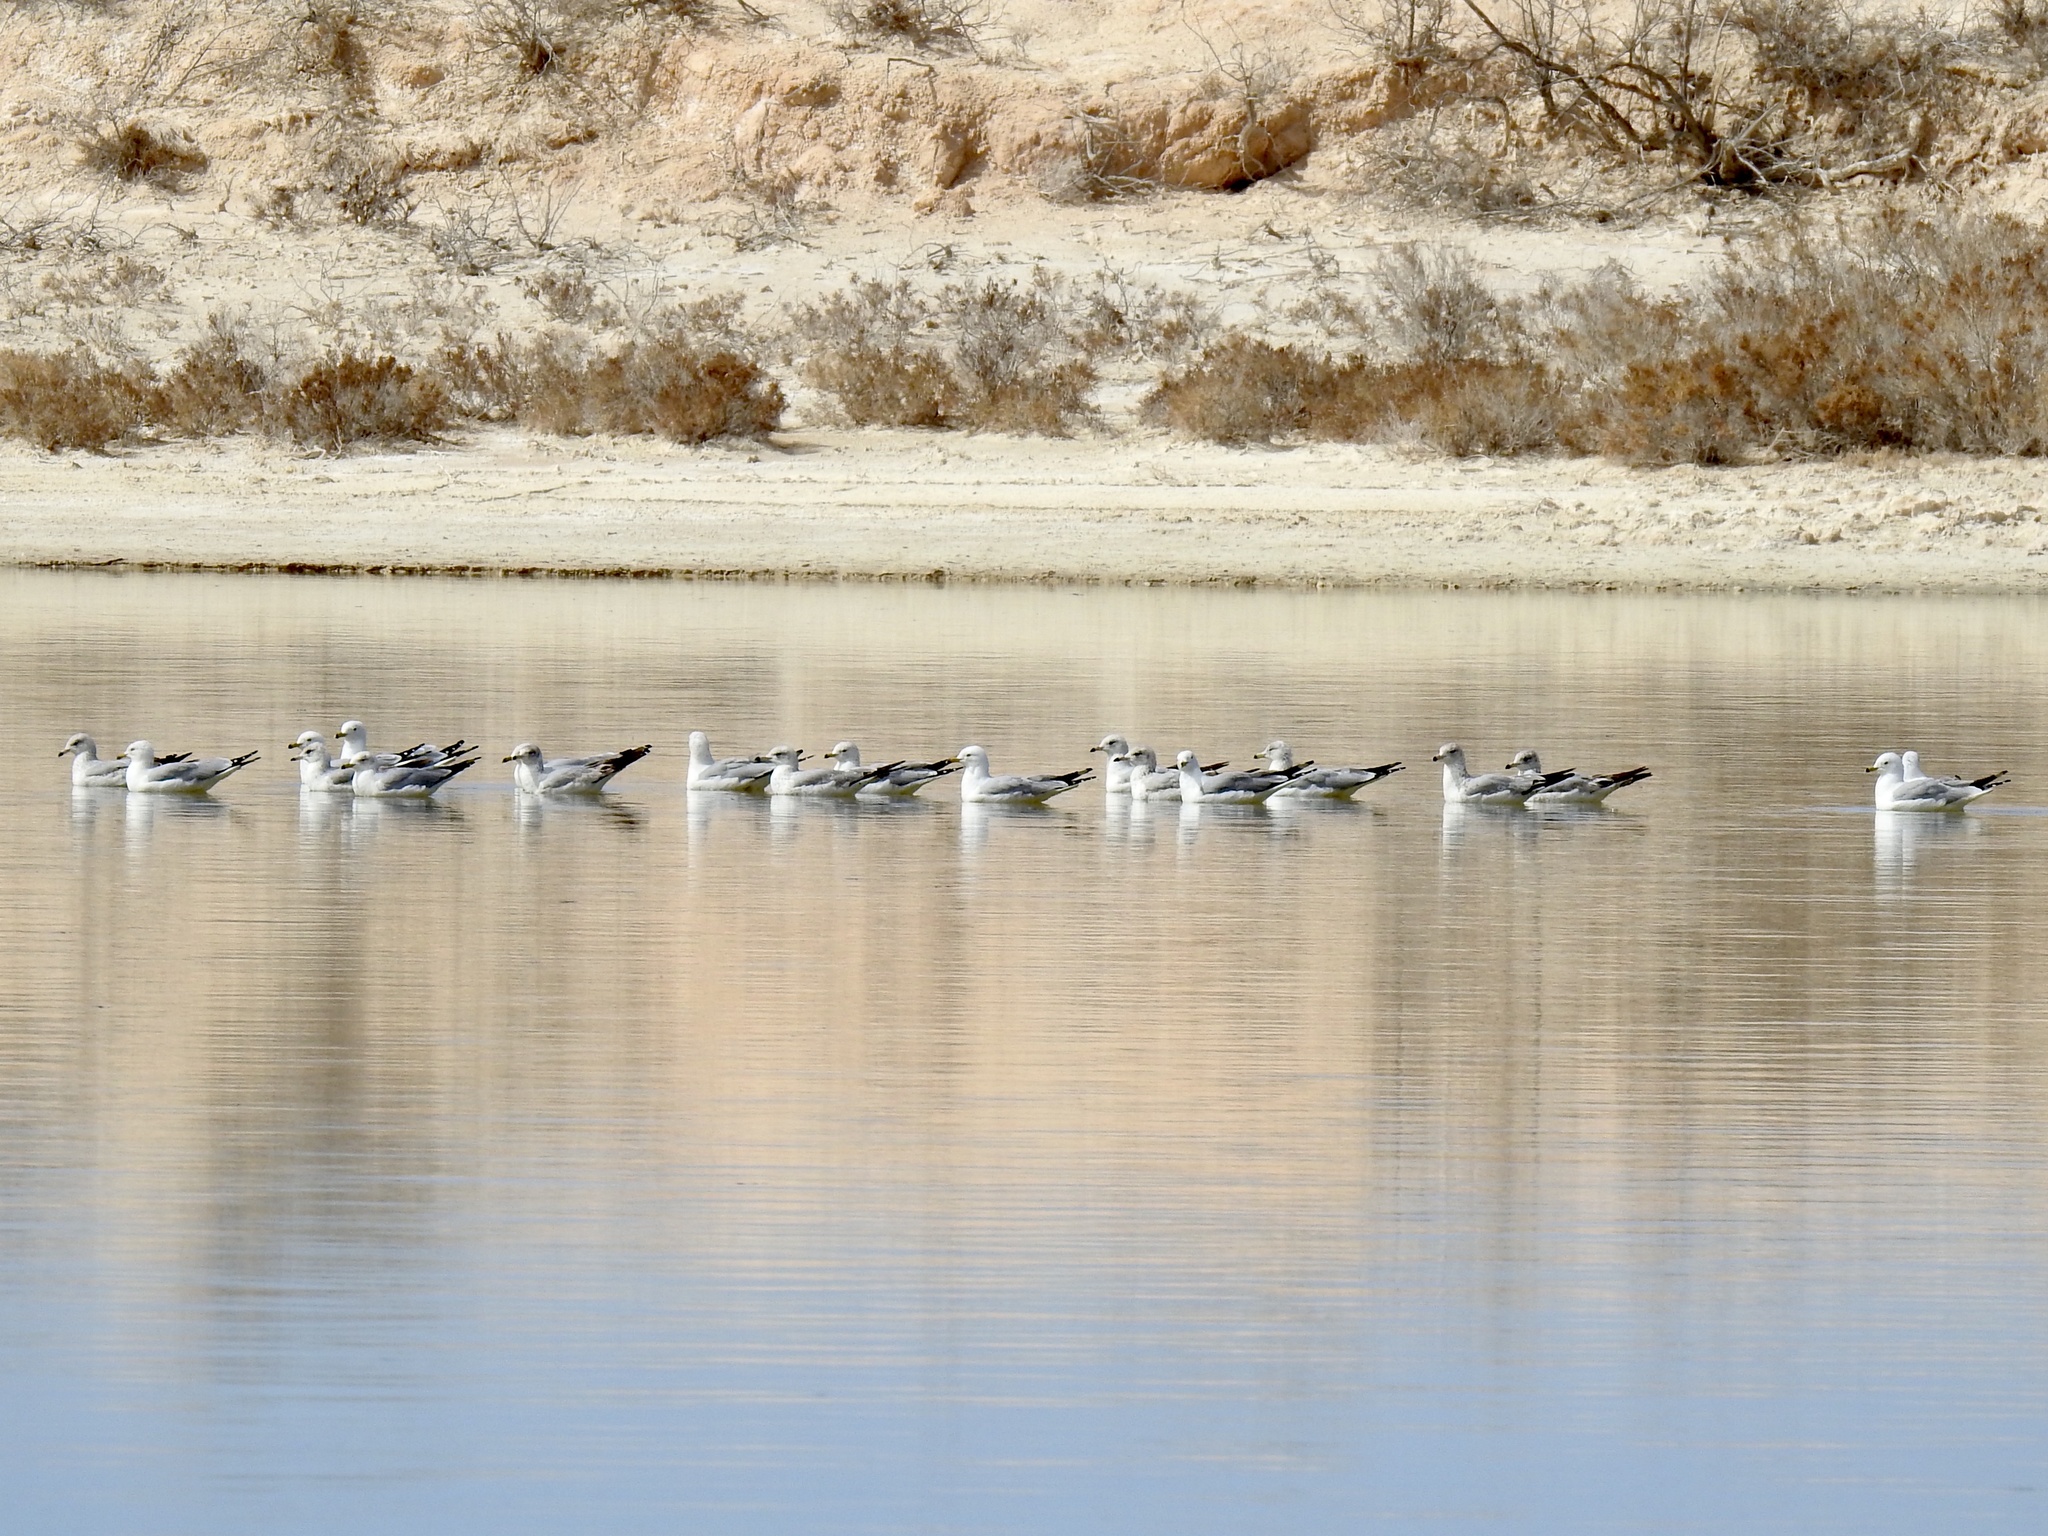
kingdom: Animalia
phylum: Chordata
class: Aves
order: Charadriiformes
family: Laridae
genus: Larus
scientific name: Larus delawarensis
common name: Ring-billed gull
